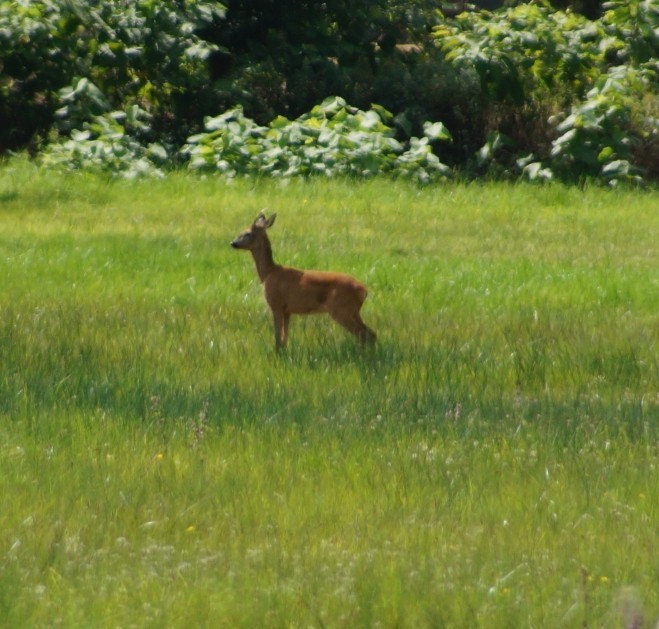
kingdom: Animalia
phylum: Chordata
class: Mammalia
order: Artiodactyla
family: Cervidae
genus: Capreolus
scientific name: Capreolus capreolus
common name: Western roe deer
